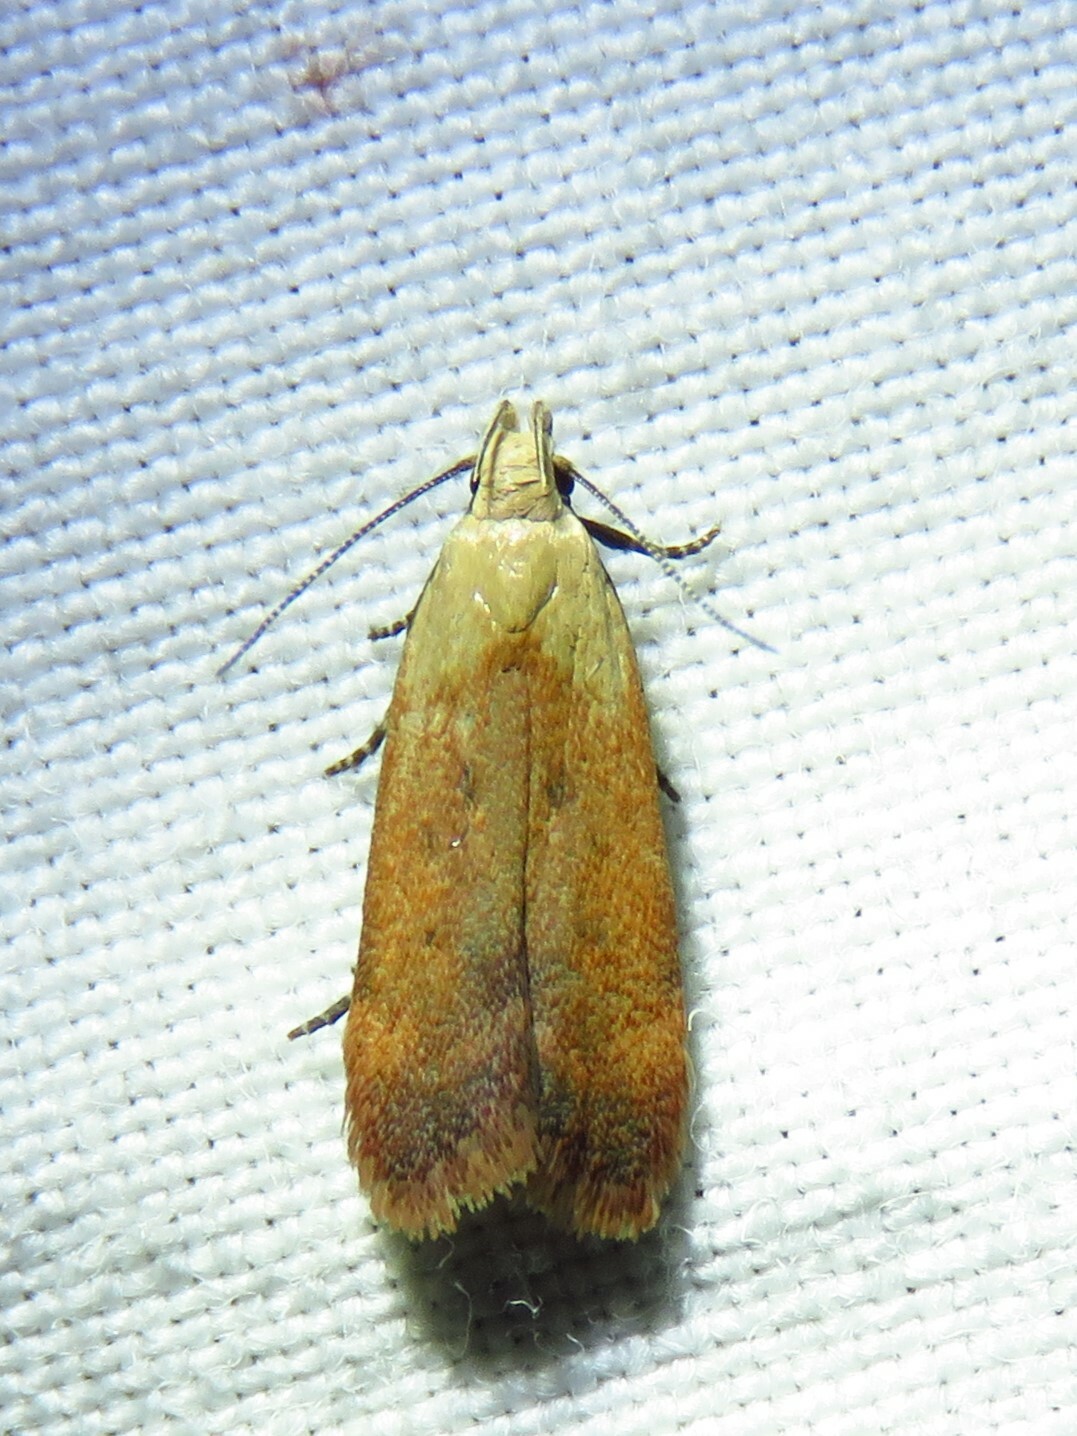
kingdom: Animalia
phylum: Arthropoda
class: Insecta
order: Lepidoptera
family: Gelechiidae
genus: Anacampsis
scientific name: Anacampsis fullonella
